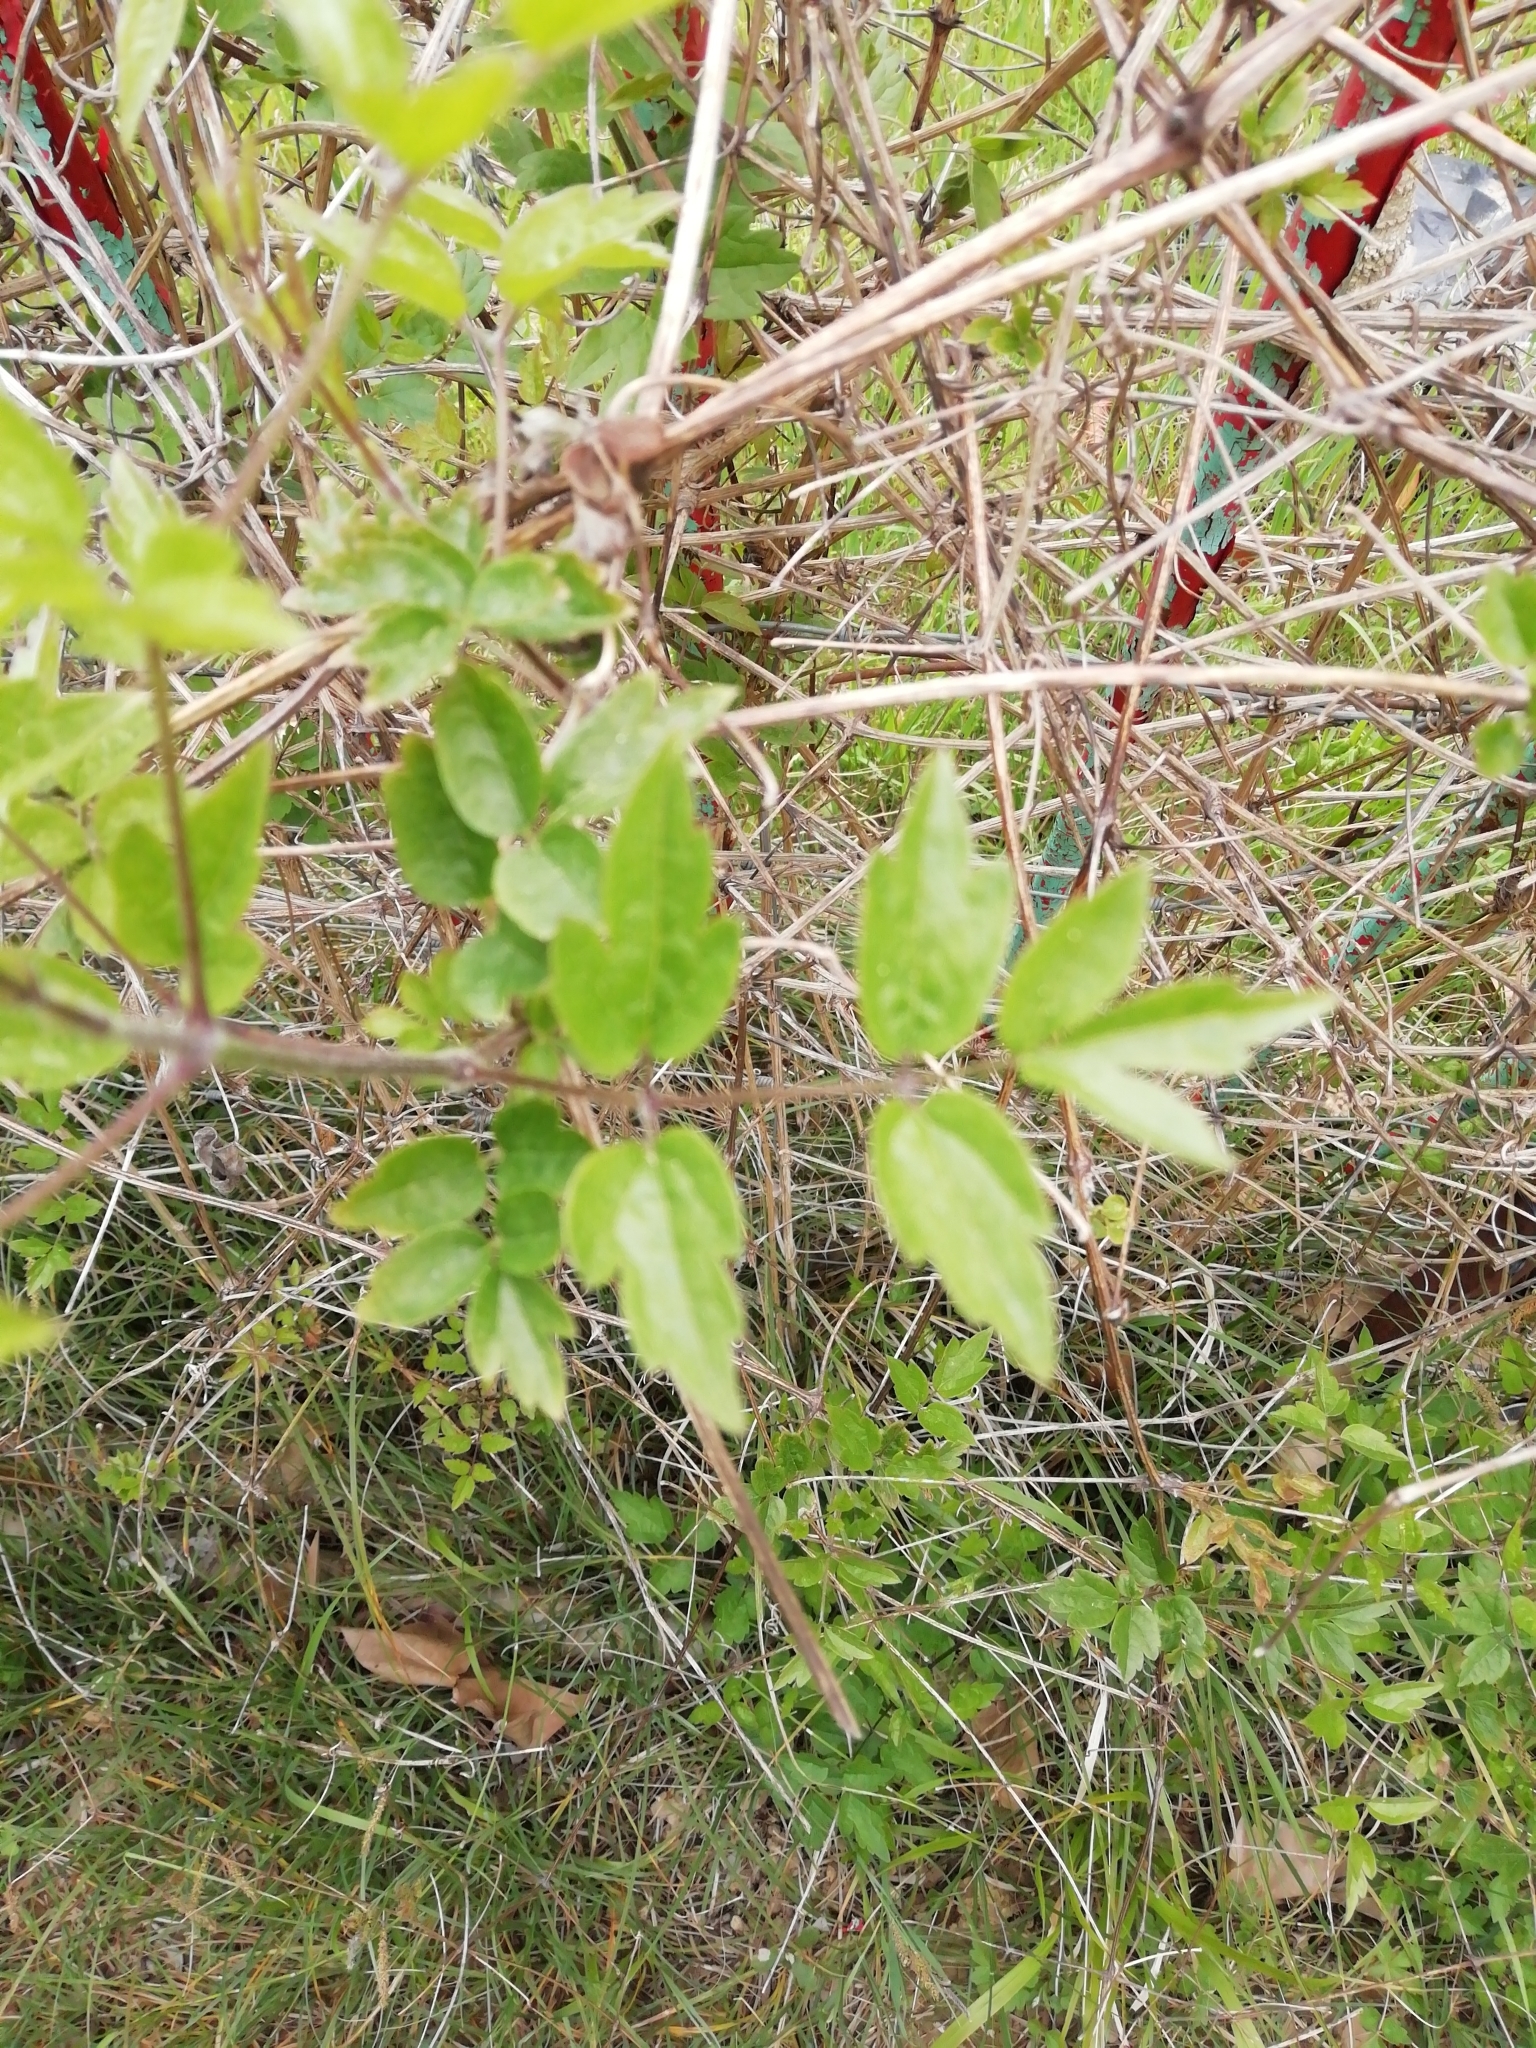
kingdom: Plantae
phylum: Tracheophyta
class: Magnoliopsida
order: Ranunculales
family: Ranunculaceae
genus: Clematis
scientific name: Clematis vitalba
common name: Evergreen clematis
